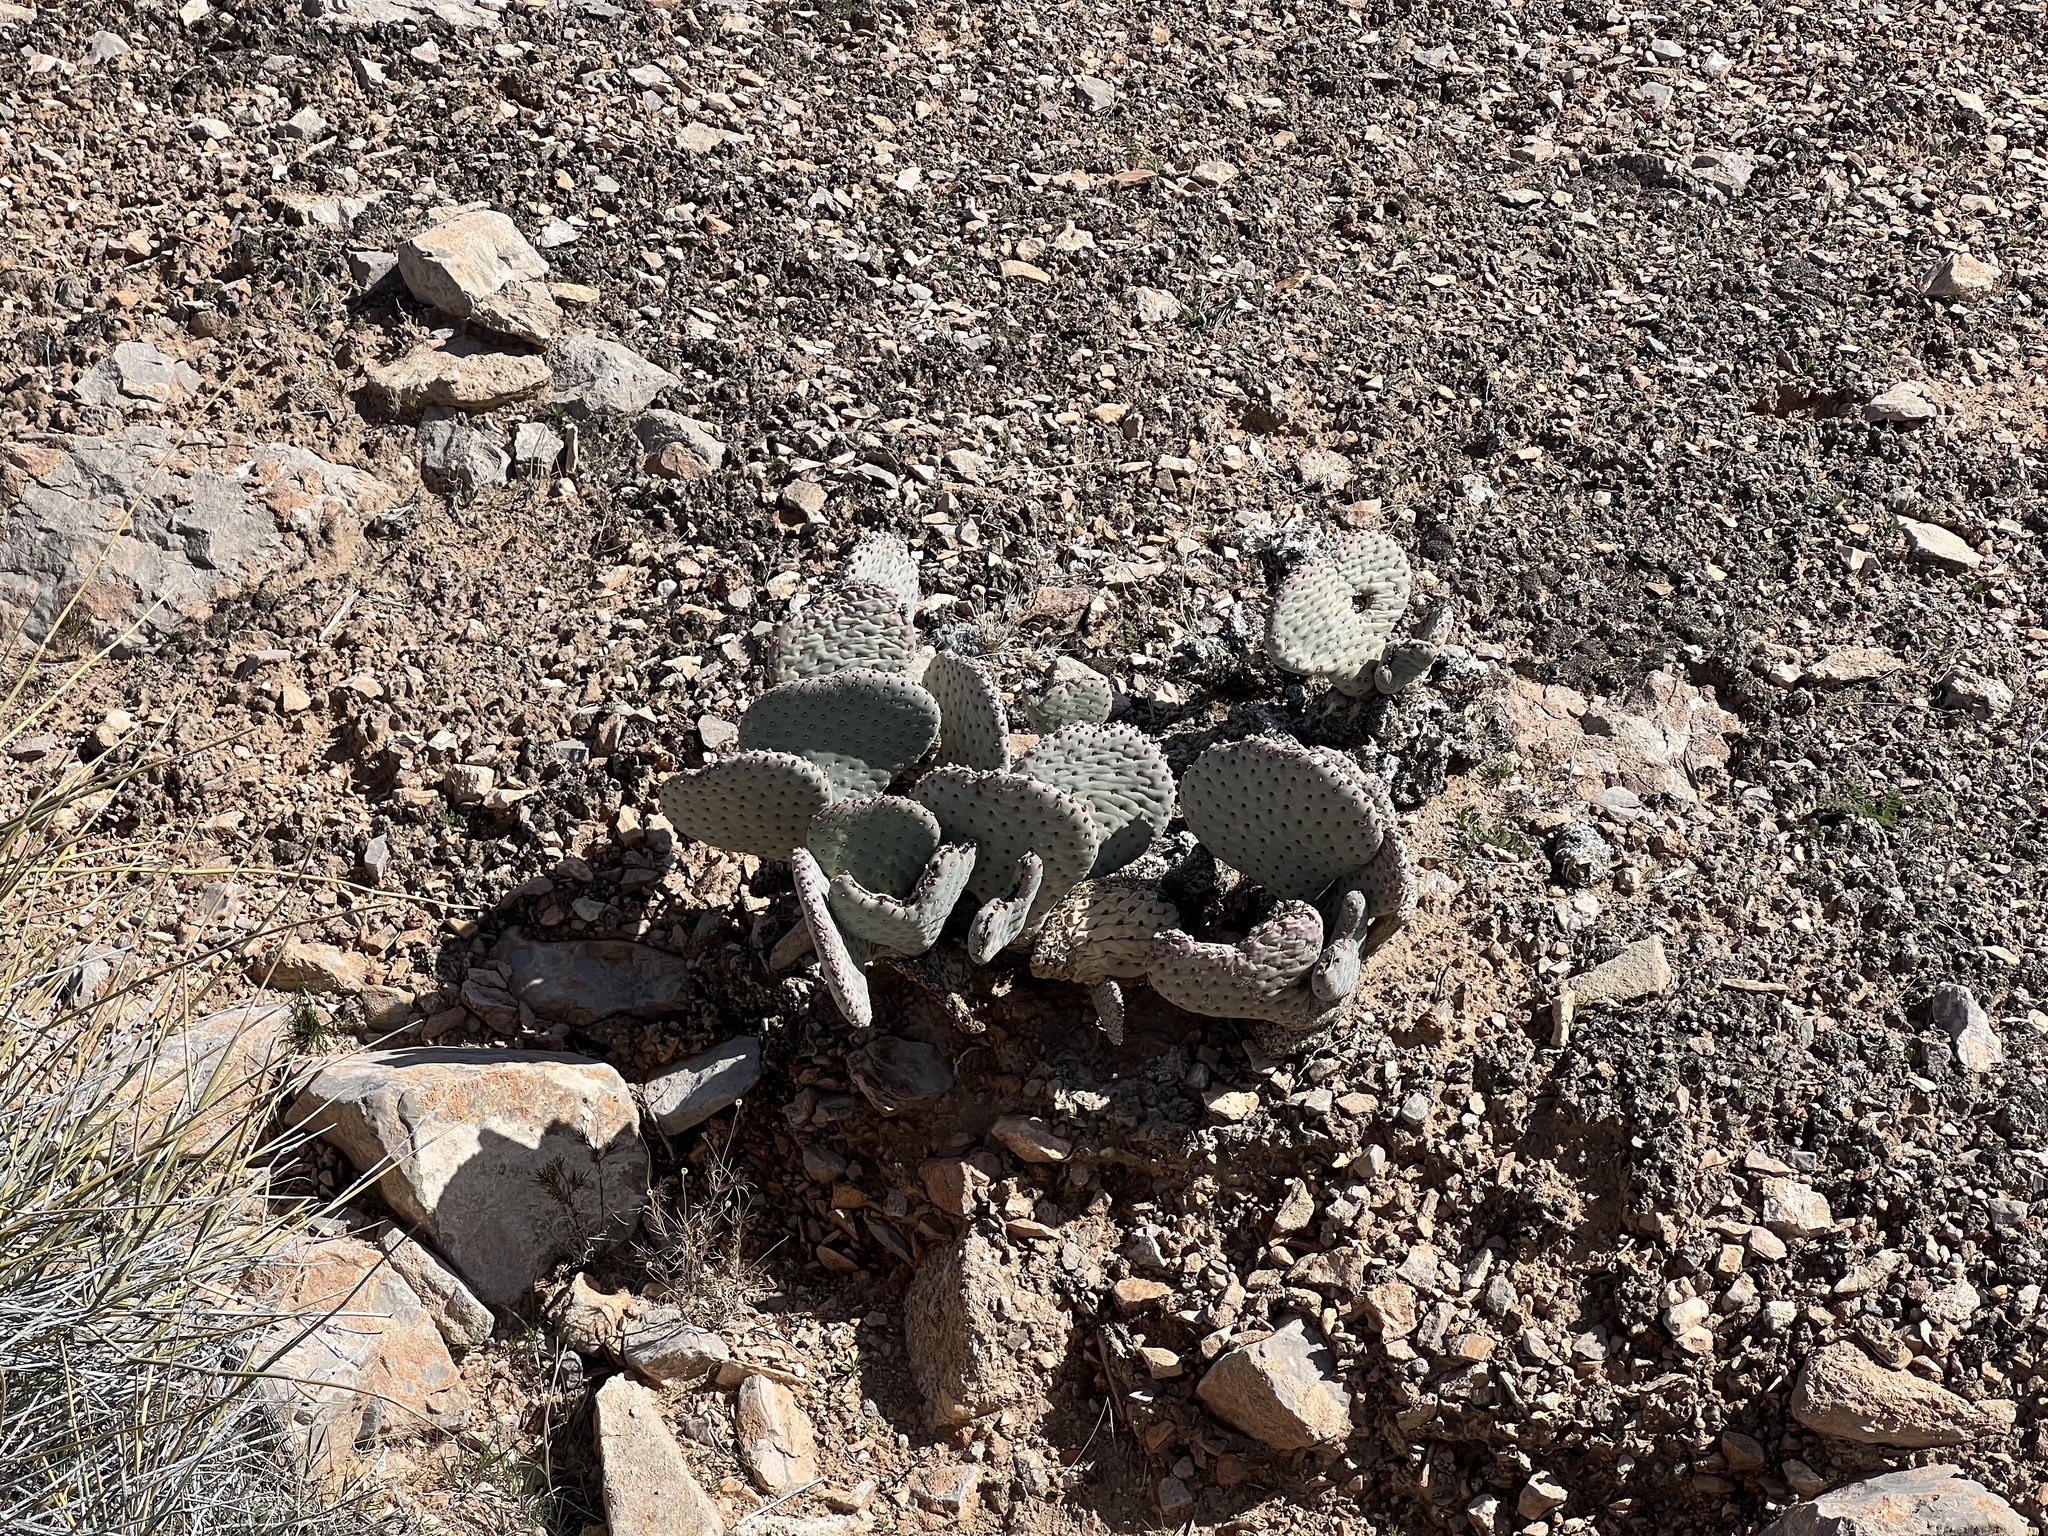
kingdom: Plantae
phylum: Tracheophyta
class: Magnoliopsida
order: Caryophyllales
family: Cactaceae
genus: Opuntia
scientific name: Opuntia basilaris
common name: Beavertail prickly-pear
